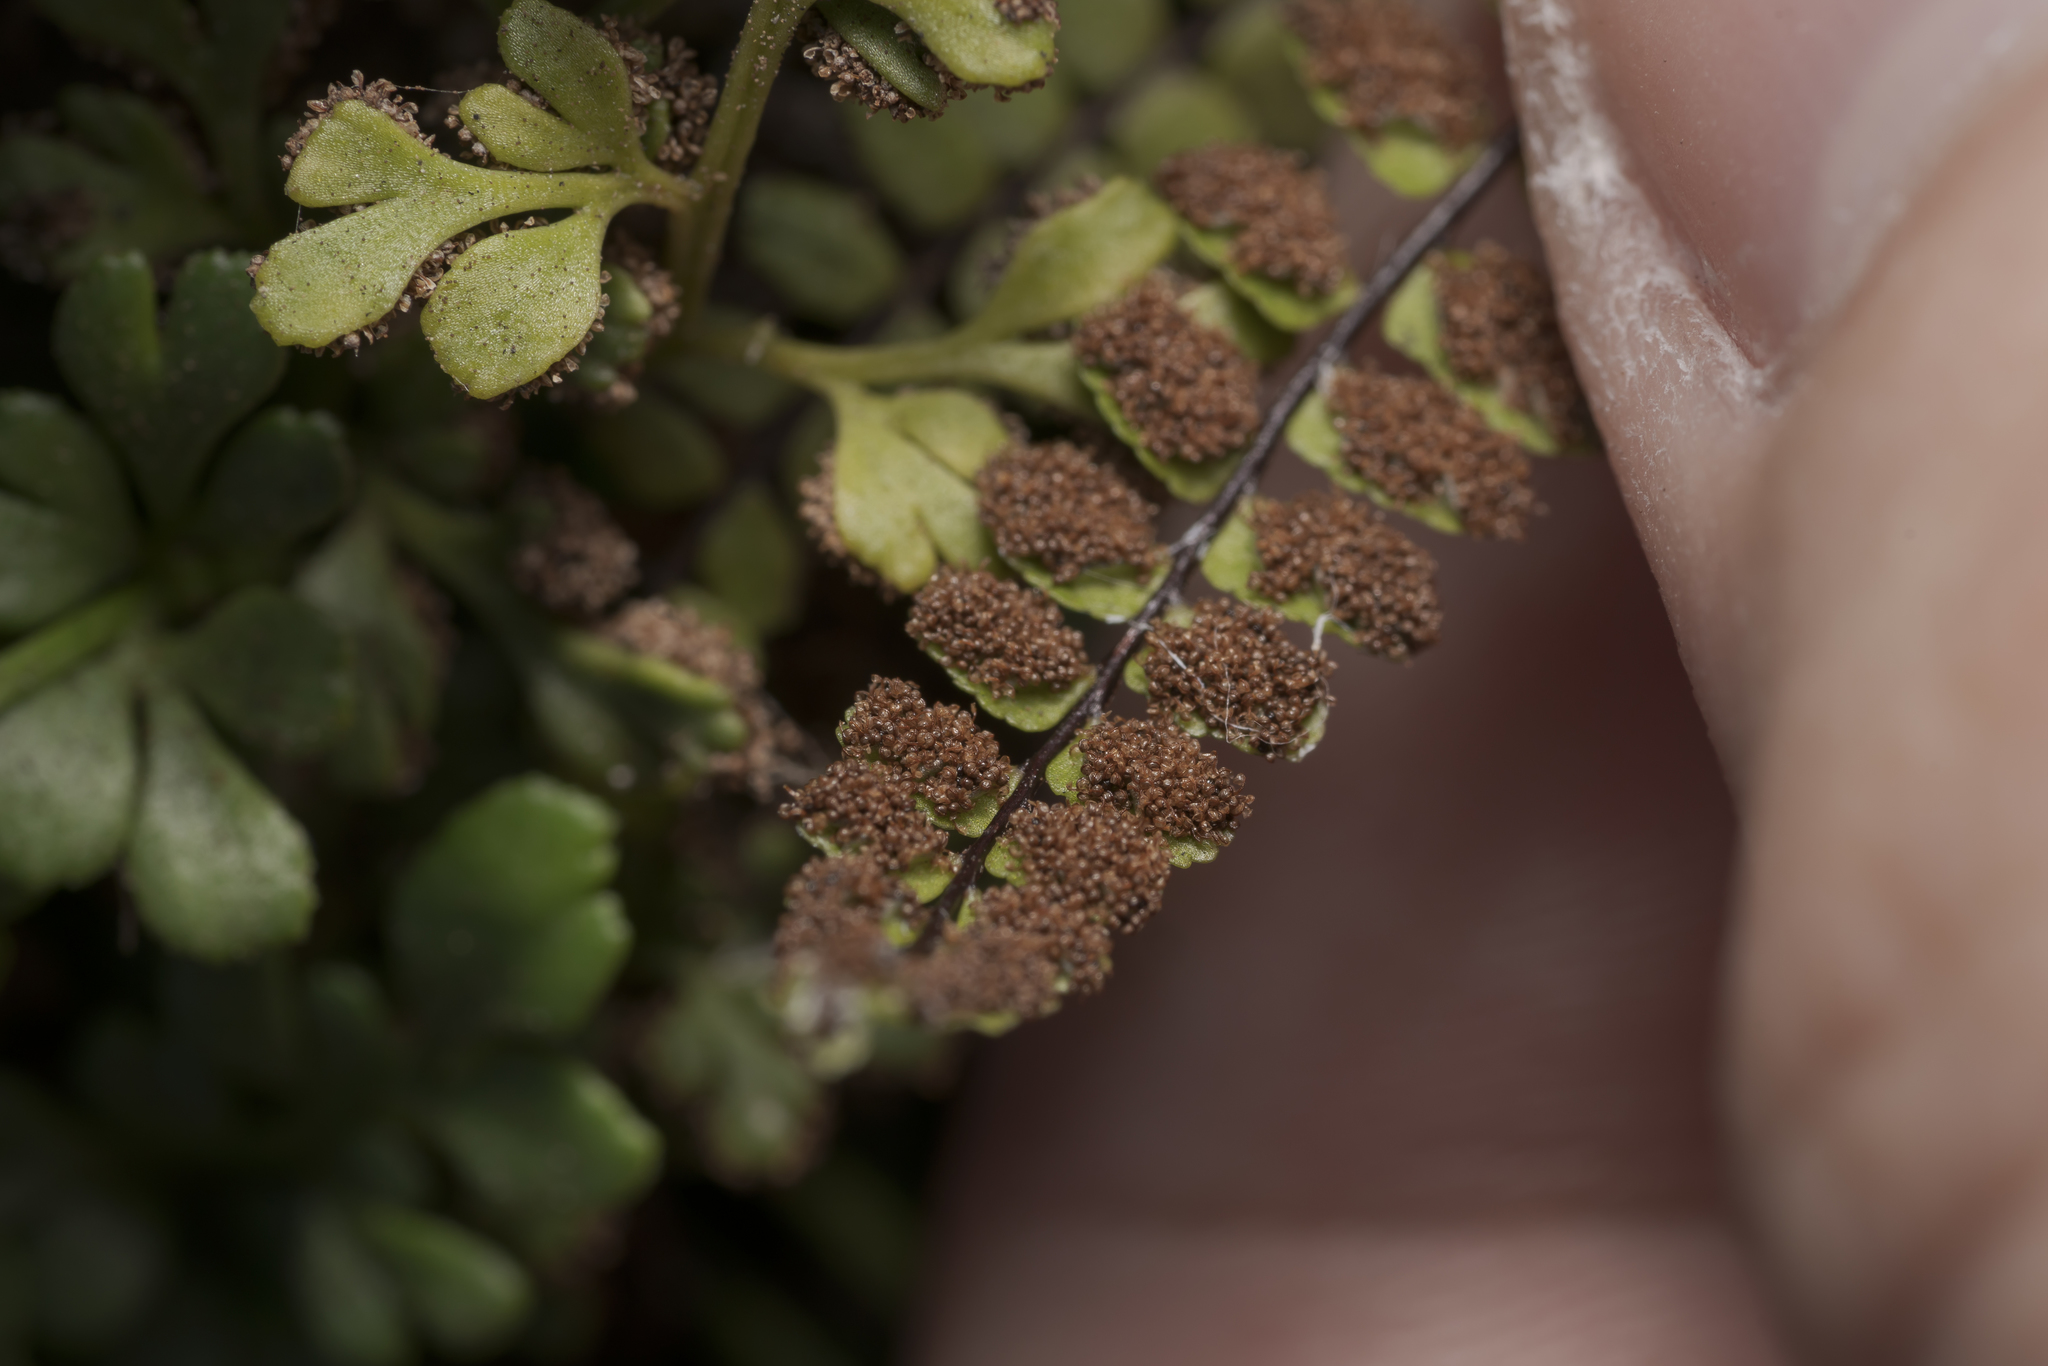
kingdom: Plantae
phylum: Tracheophyta
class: Polypodiopsida
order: Polypodiales
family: Aspleniaceae
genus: Asplenium
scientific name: Asplenium trichomanes
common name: Maidenhair spleenwort
